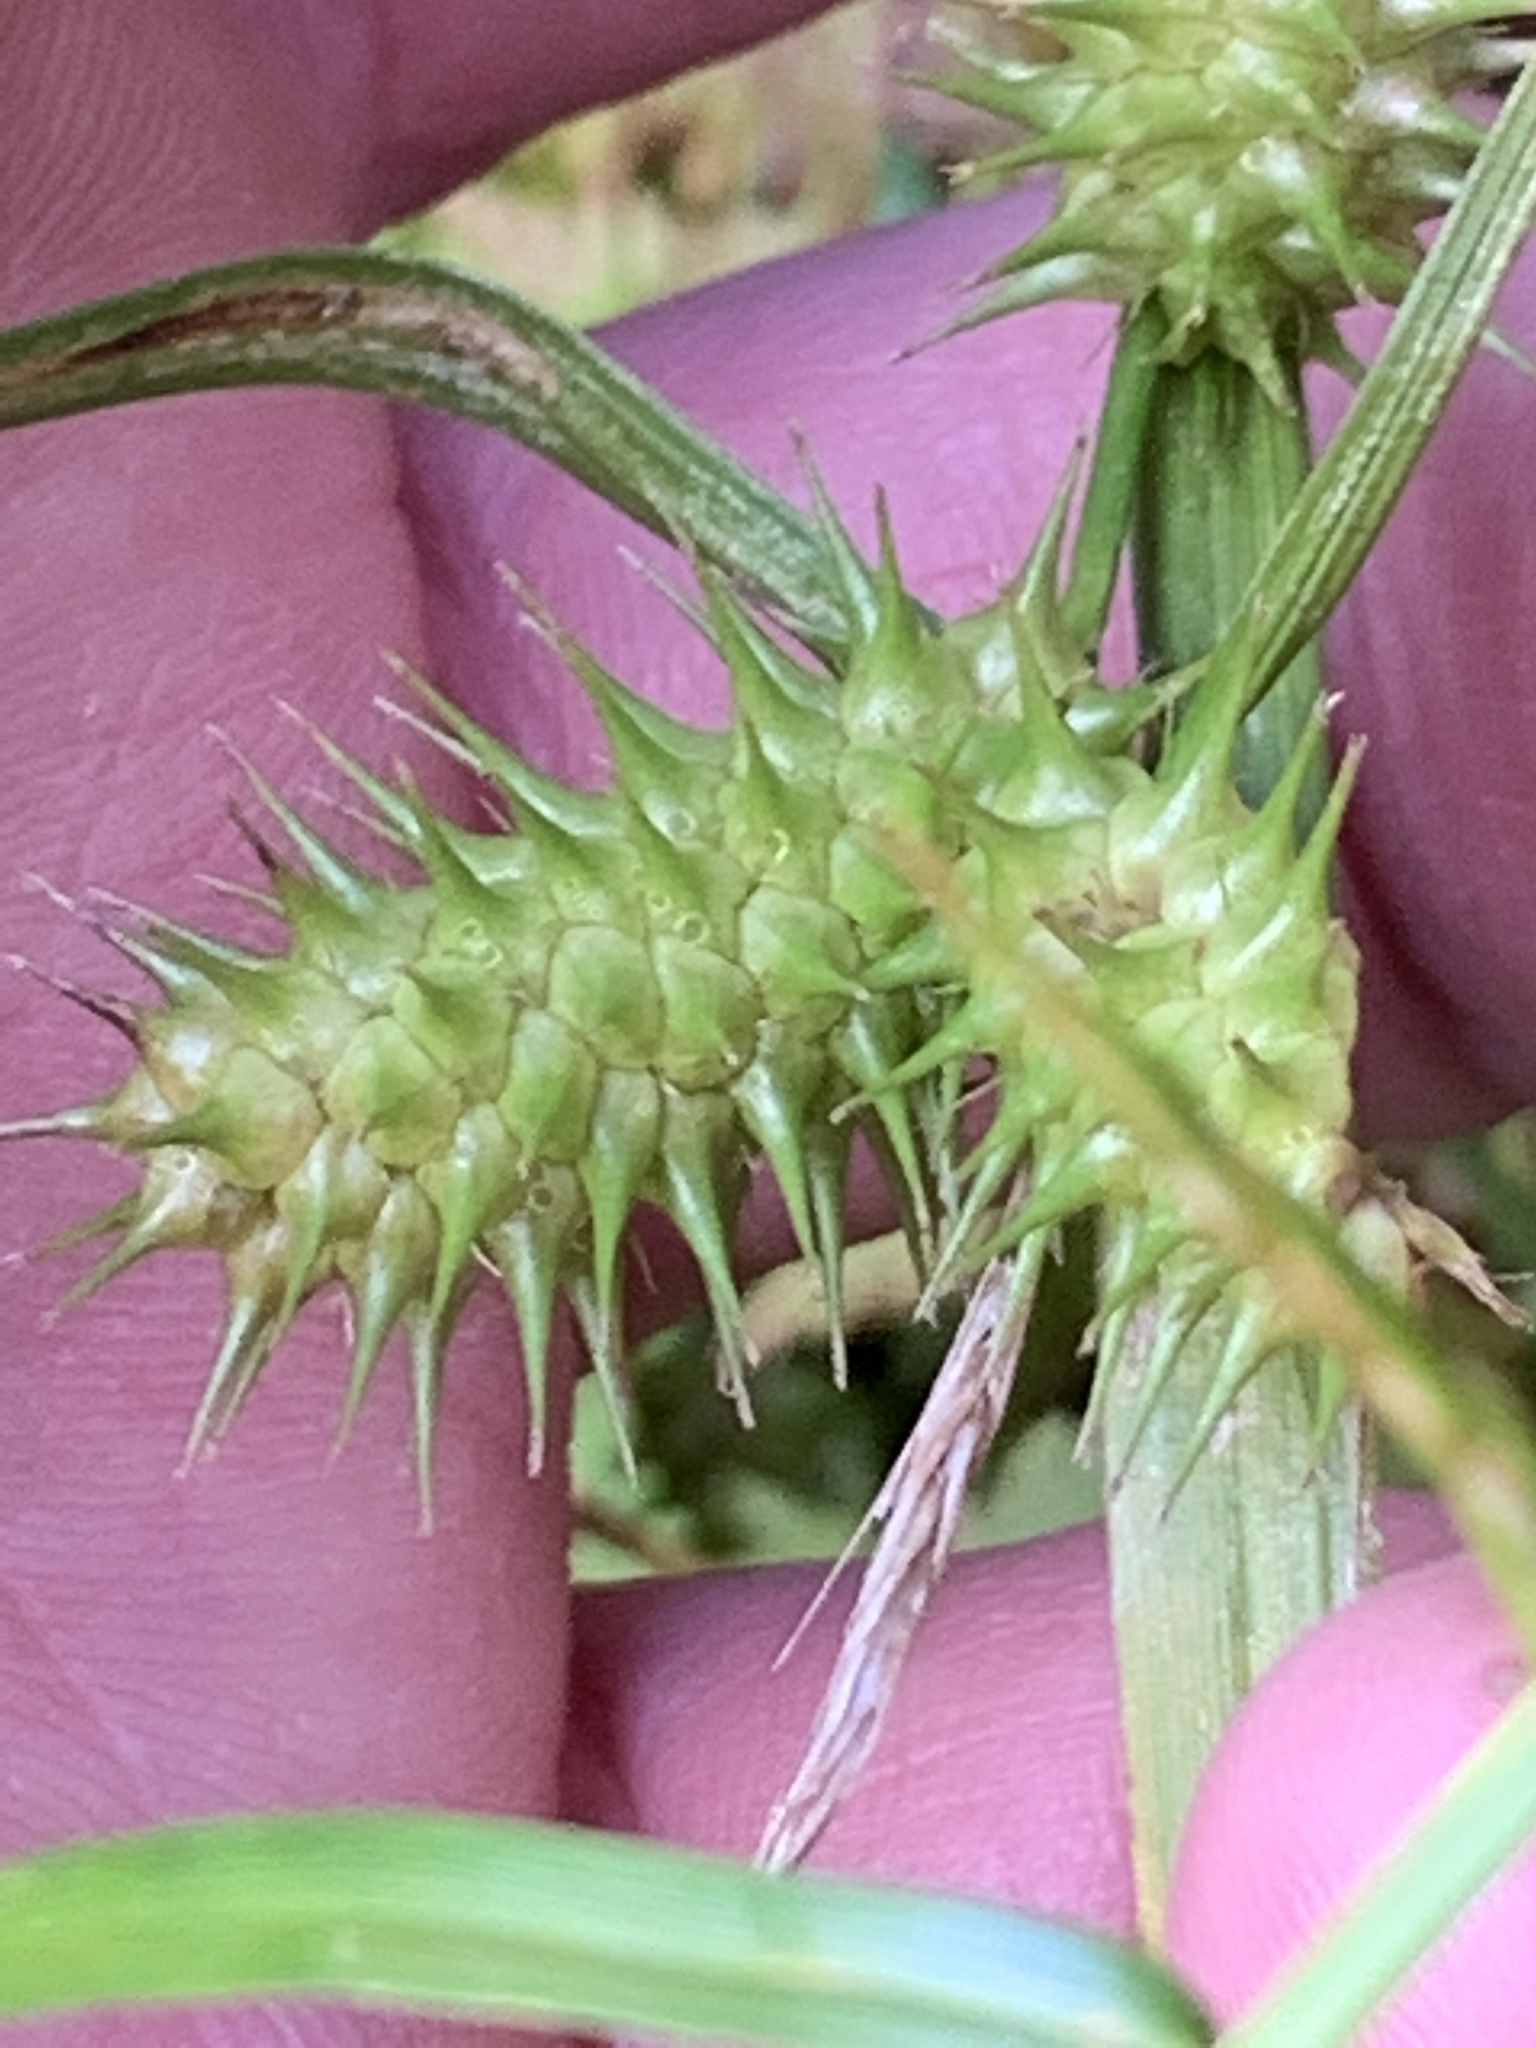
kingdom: Plantae
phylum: Tracheophyta
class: Liliopsida
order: Poales
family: Cyperaceae
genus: Carex
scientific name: Carex lurida
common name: Sallow sedge
